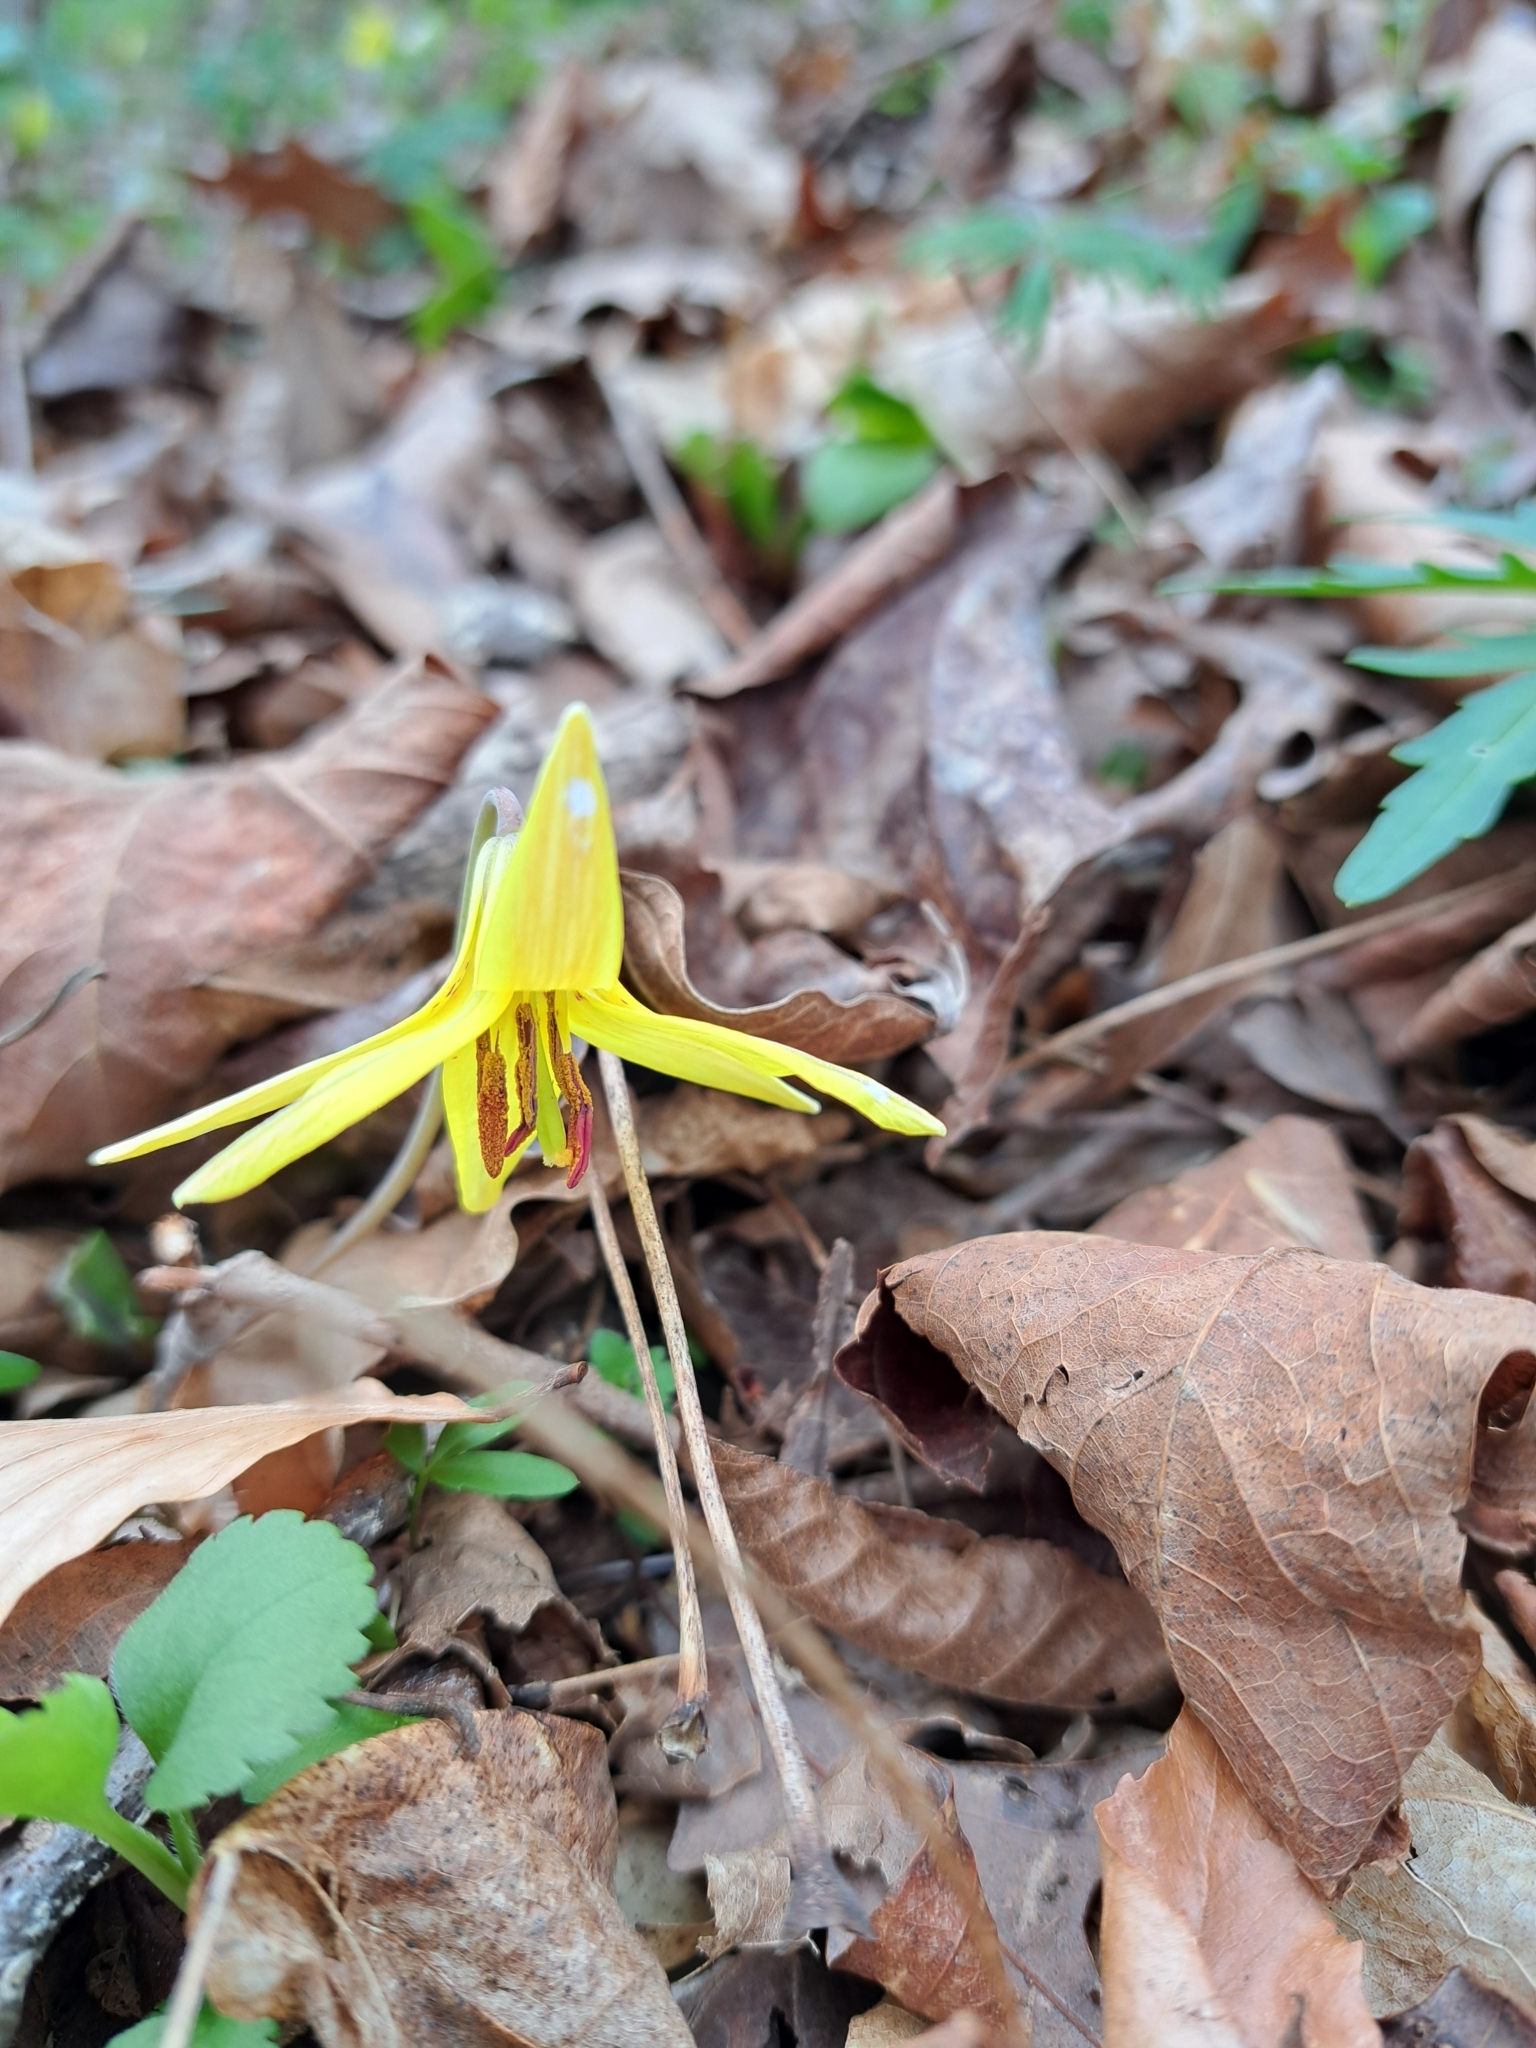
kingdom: Plantae
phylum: Tracheophyta
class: Liliopsida
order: Liliales
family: Liliaceae
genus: Erythronium
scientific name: Erythronium americanum
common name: Yellow adder's-tongue
